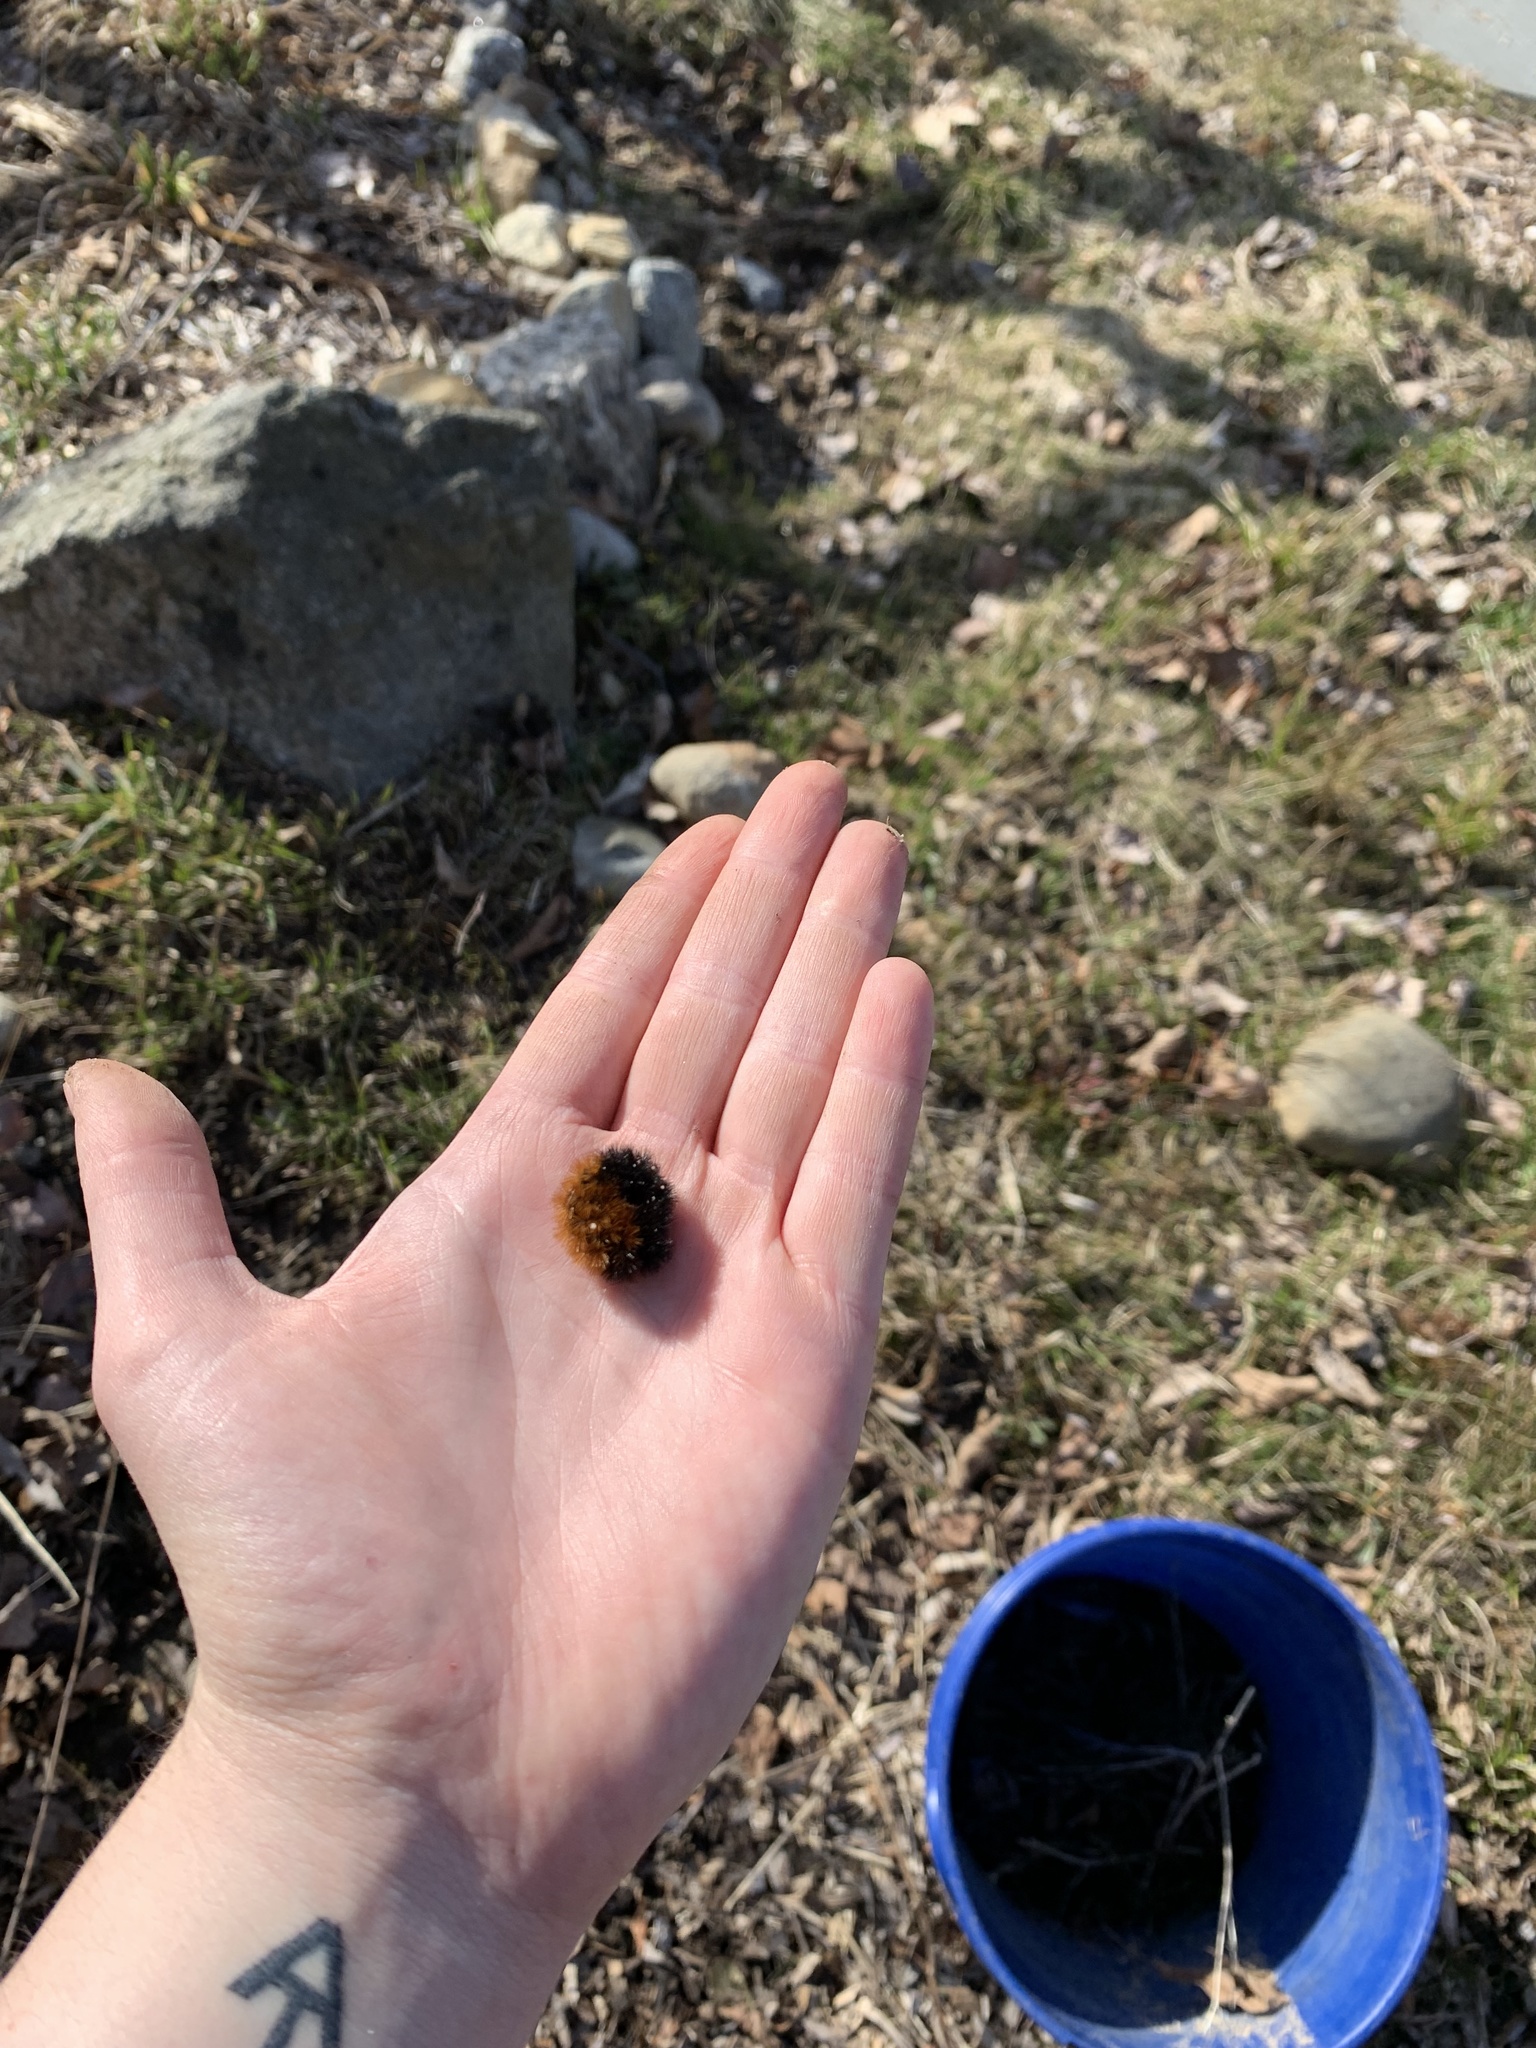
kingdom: Animalia
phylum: Arthropoda
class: Insecta
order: Lepidoptera
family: Erebidae
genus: Pyrrharctia
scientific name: Pyrrharctia isabella
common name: Isabella tiger moth
